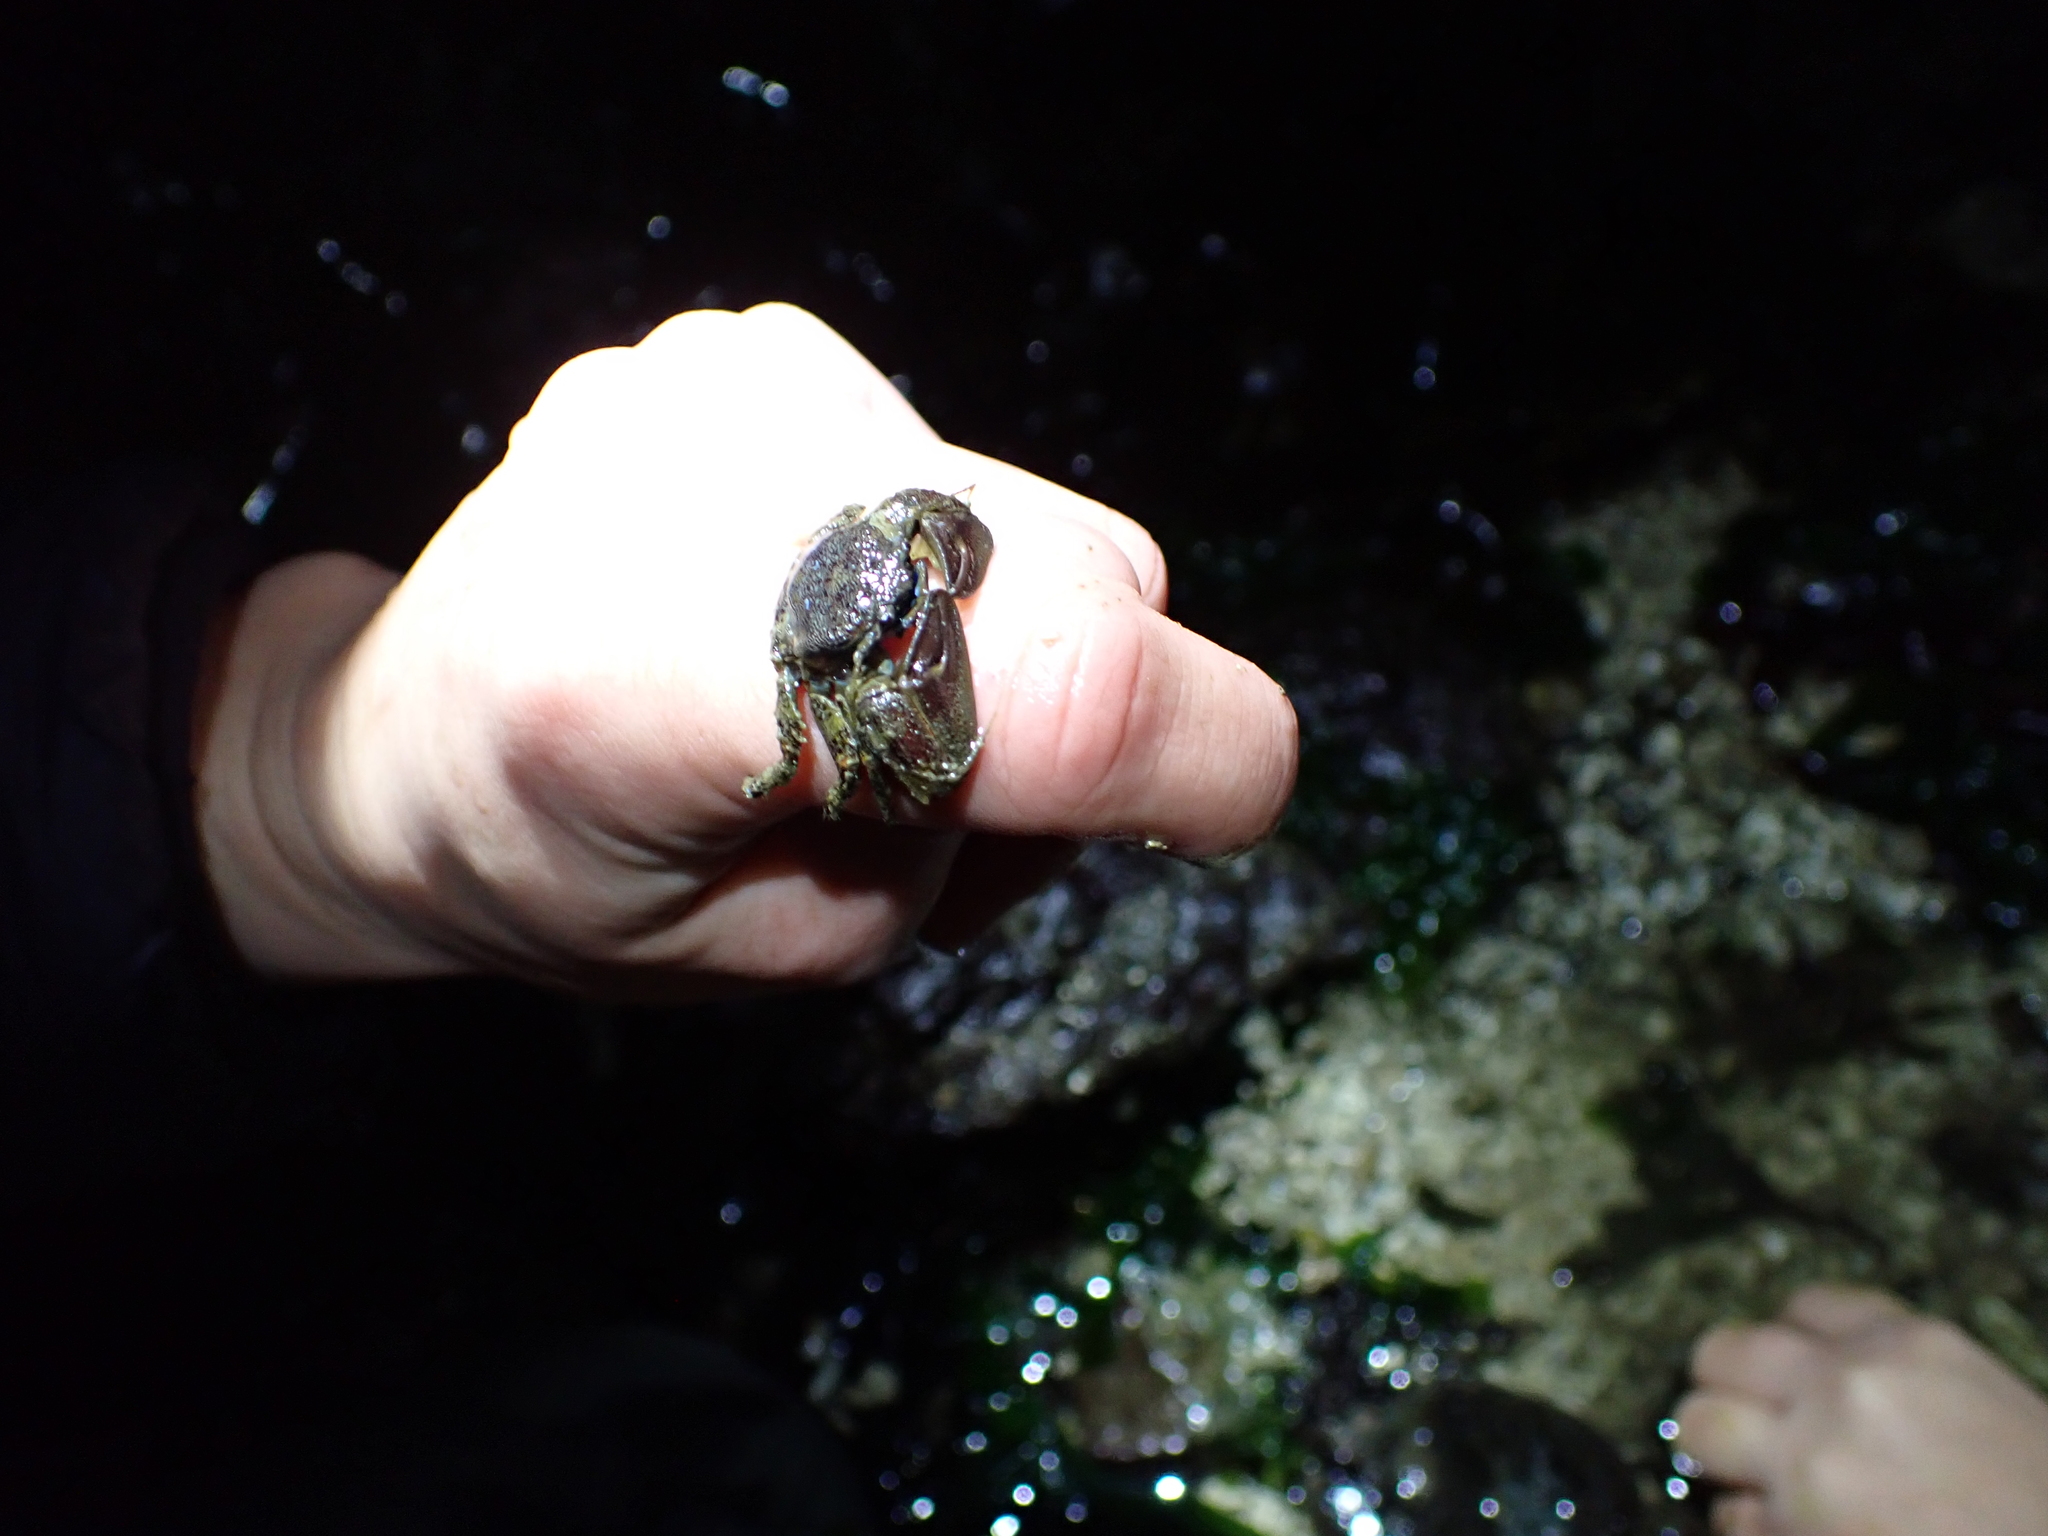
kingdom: Animalia
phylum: Arthropoda
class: Malacostraca
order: Decapoda
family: Porcellanidae
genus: Petrolisthes
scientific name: Petrolisthes eriomerus
